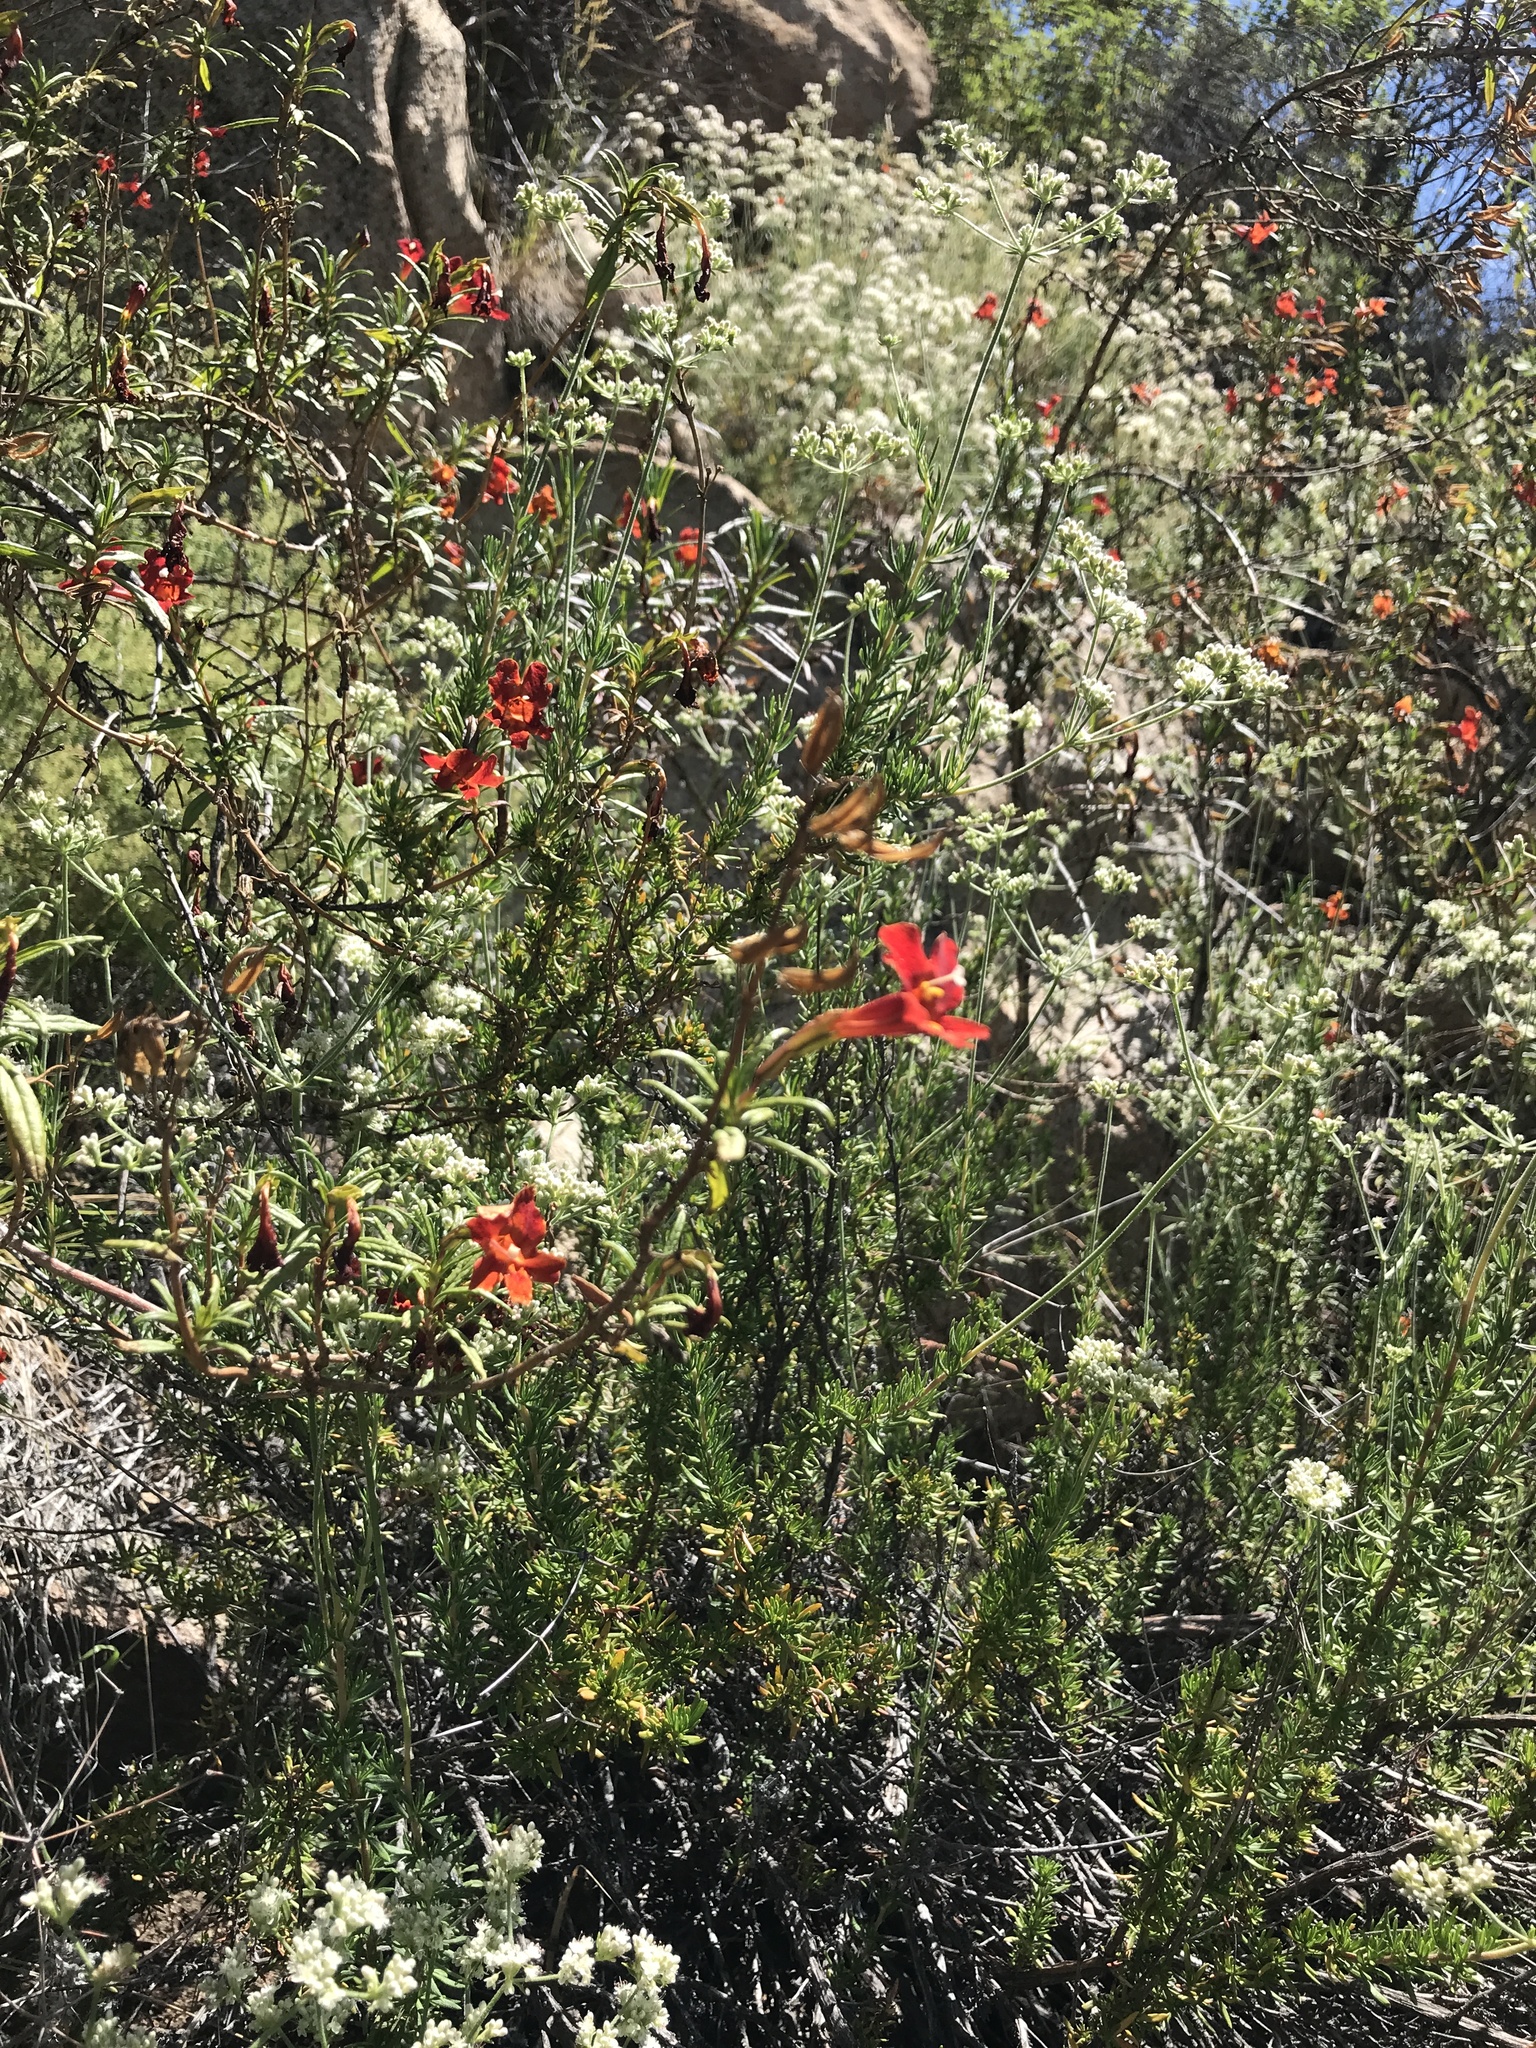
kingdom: Plantae
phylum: Tracheophyta
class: Magnoliopsida
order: Lamiales
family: Phrymaceae
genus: Diplacus
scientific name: Diplacus puniceus
